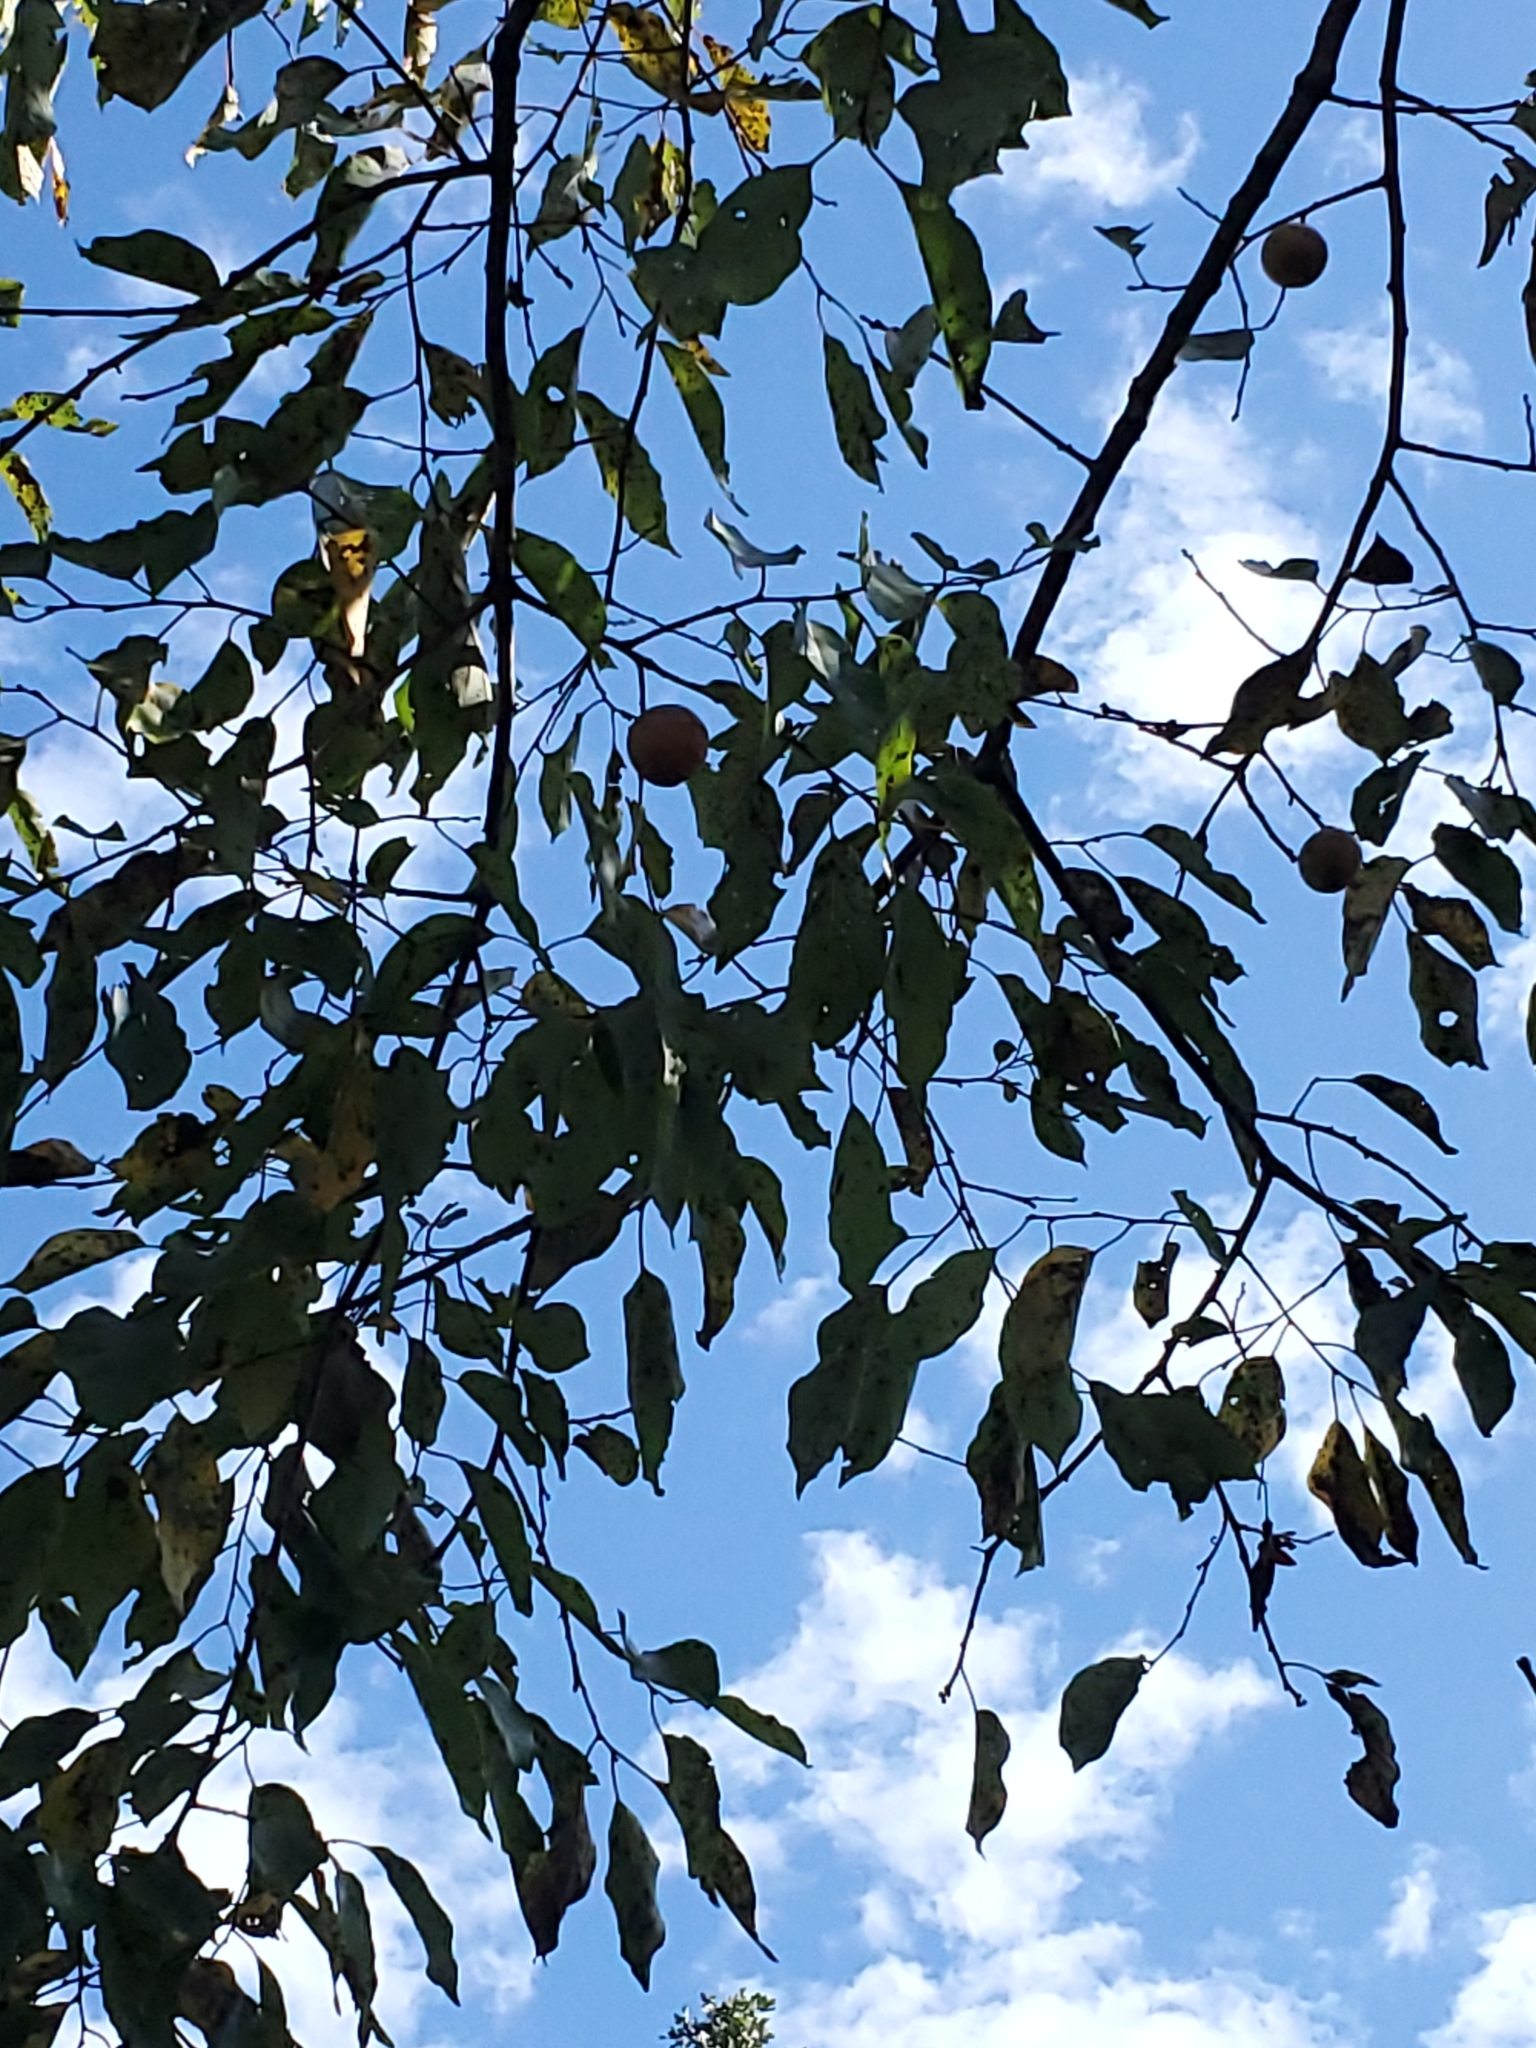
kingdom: Plantae
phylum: Tracheophyta
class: Magnoliopsida
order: Ericales
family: Ebenaceae
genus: Diospyros
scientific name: Diospyros virginiana
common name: Persimmon
